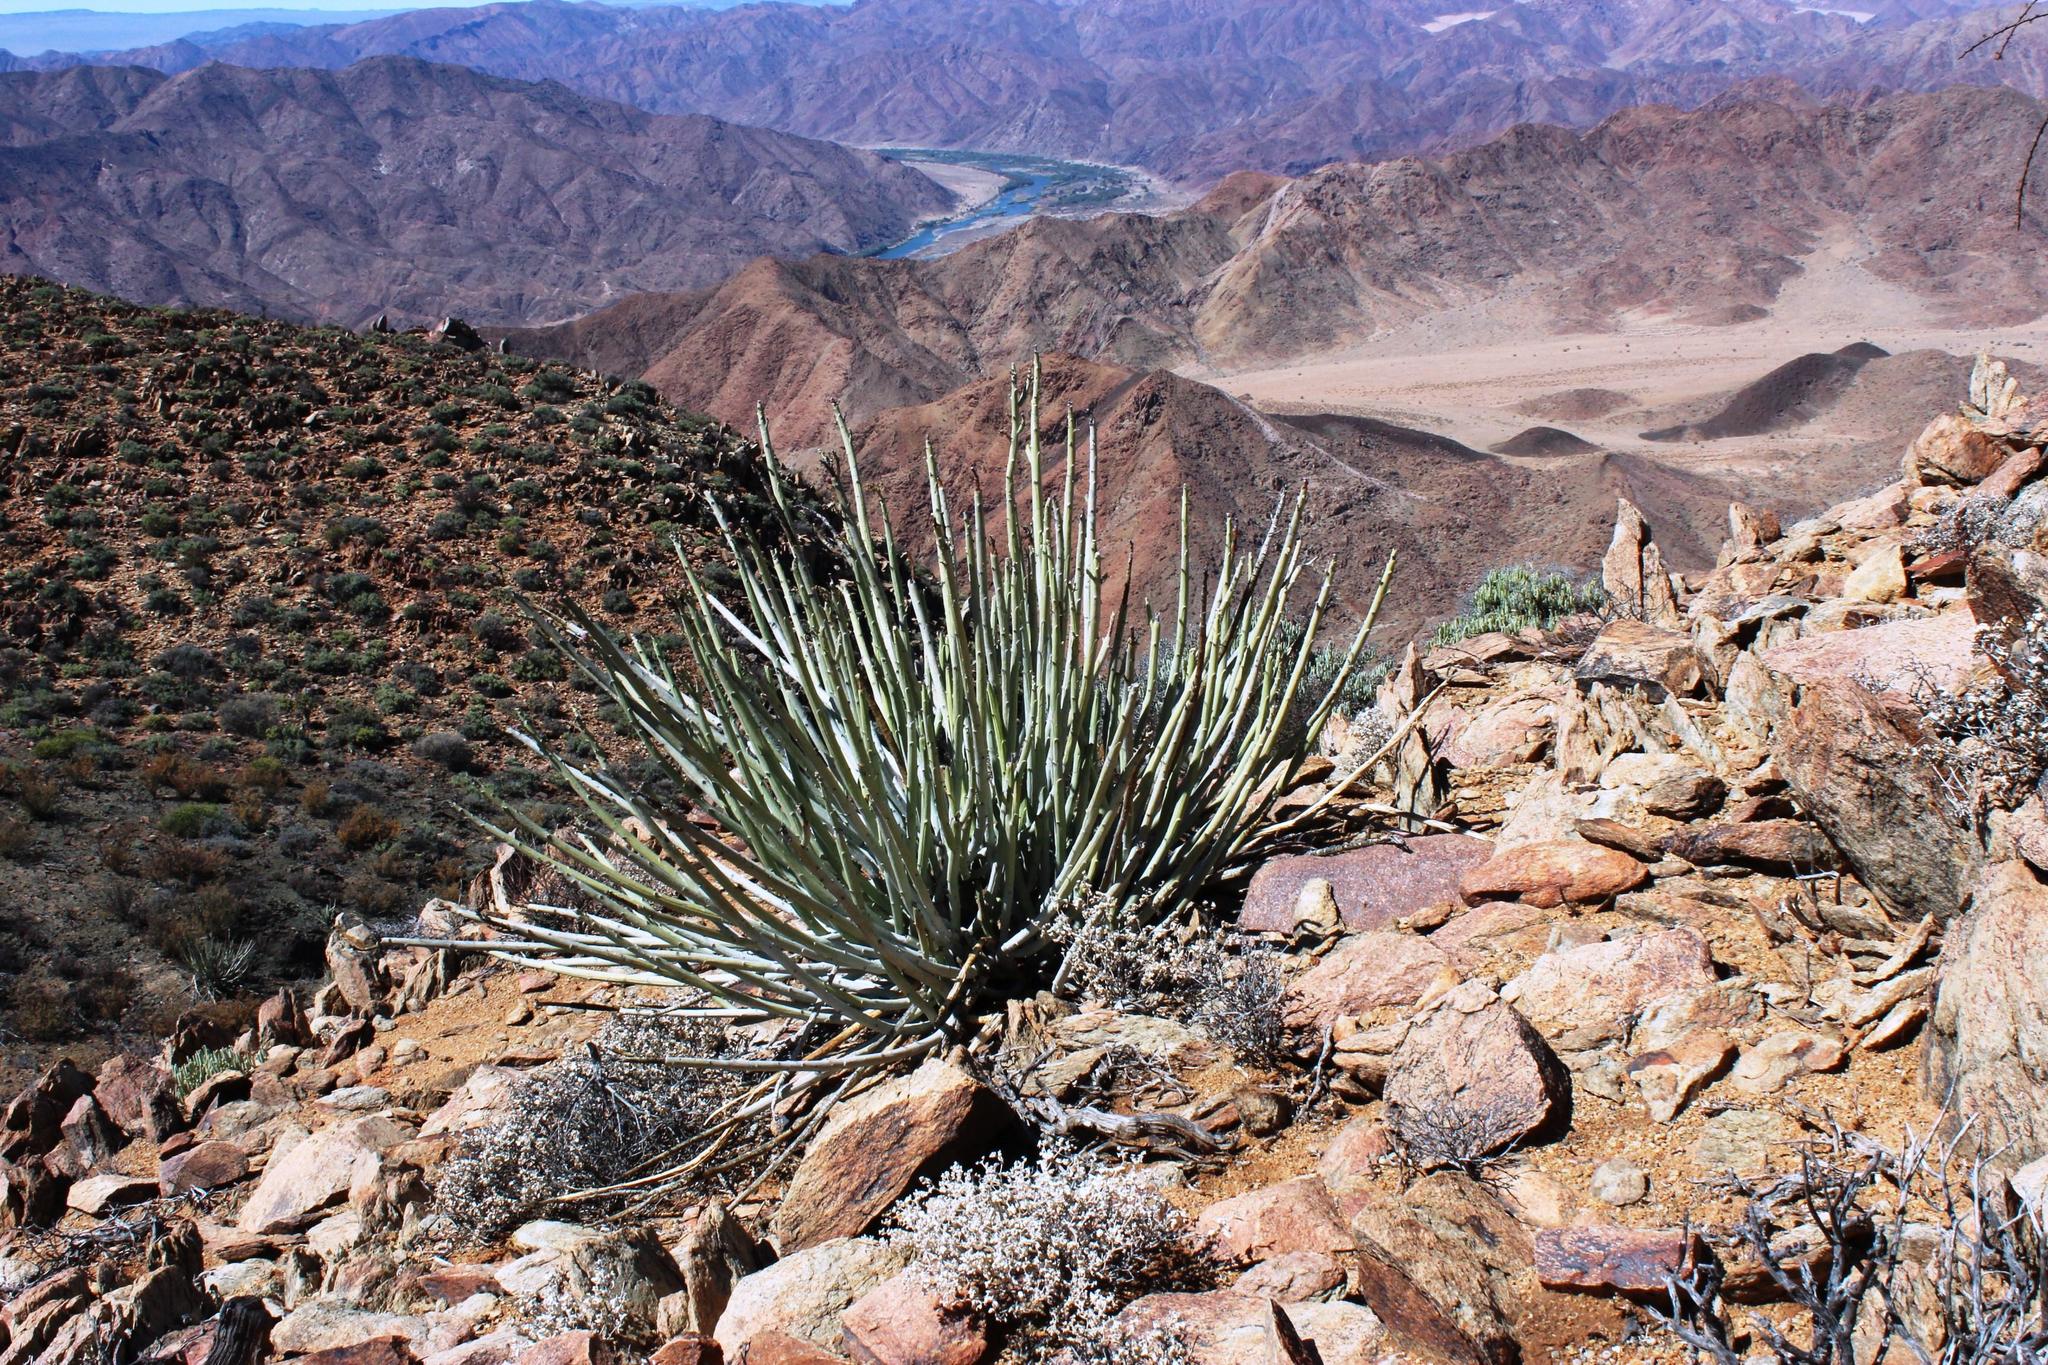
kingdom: Plantae
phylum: Tracheophyta
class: Magnoliopsida
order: Malpighiales
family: Euphorbiaceae
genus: Euphorbia
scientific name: Euphorbia dregeana
